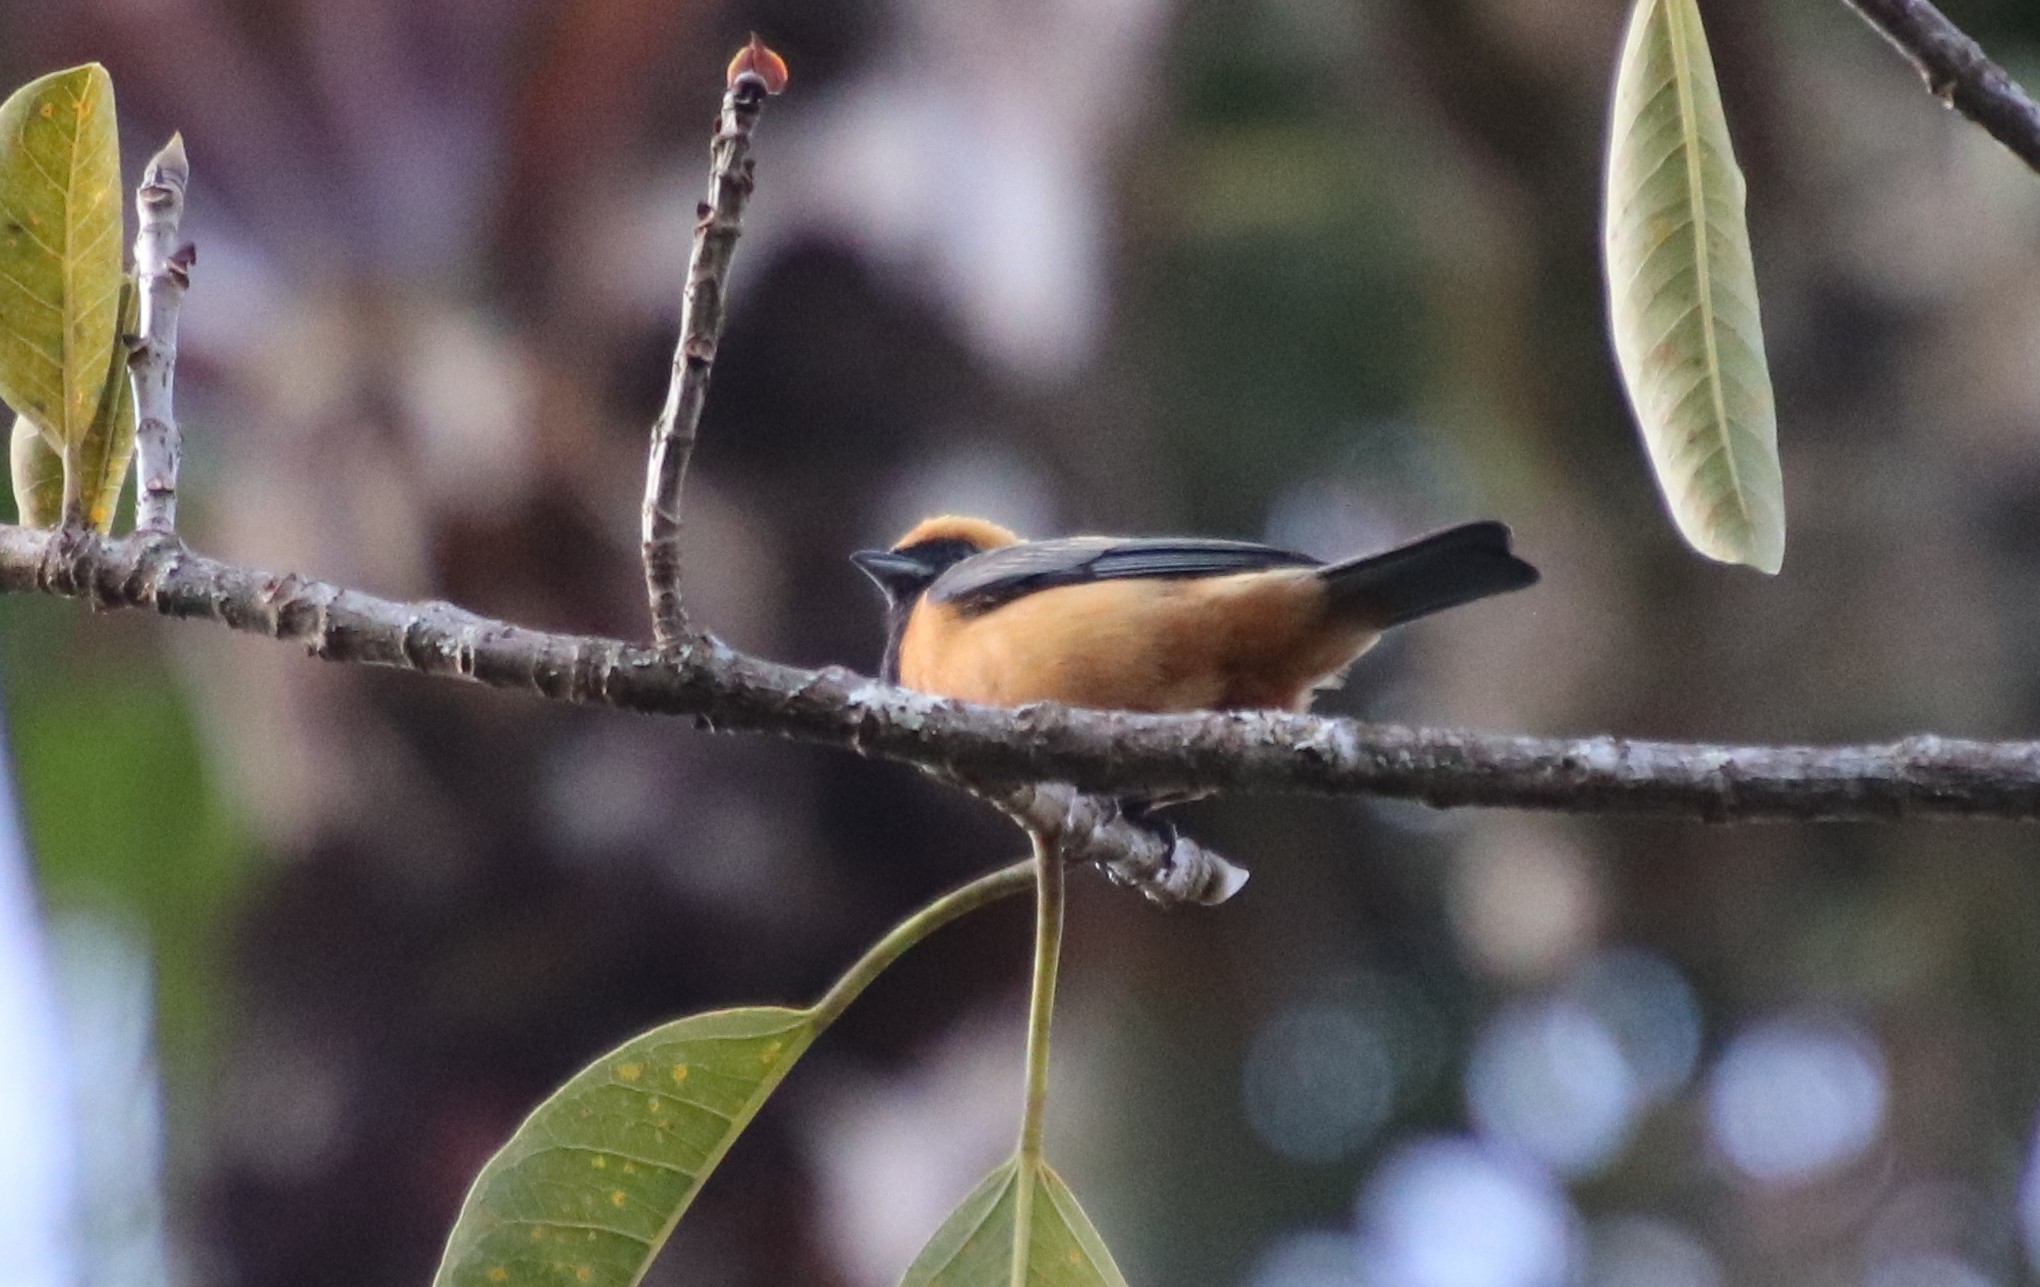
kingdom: Animalia
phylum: Chordata
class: Aves
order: Passeriformes
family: Thraupidae
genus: Stilpnia
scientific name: Stilpnia cayana
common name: Burnished-buff tanager
